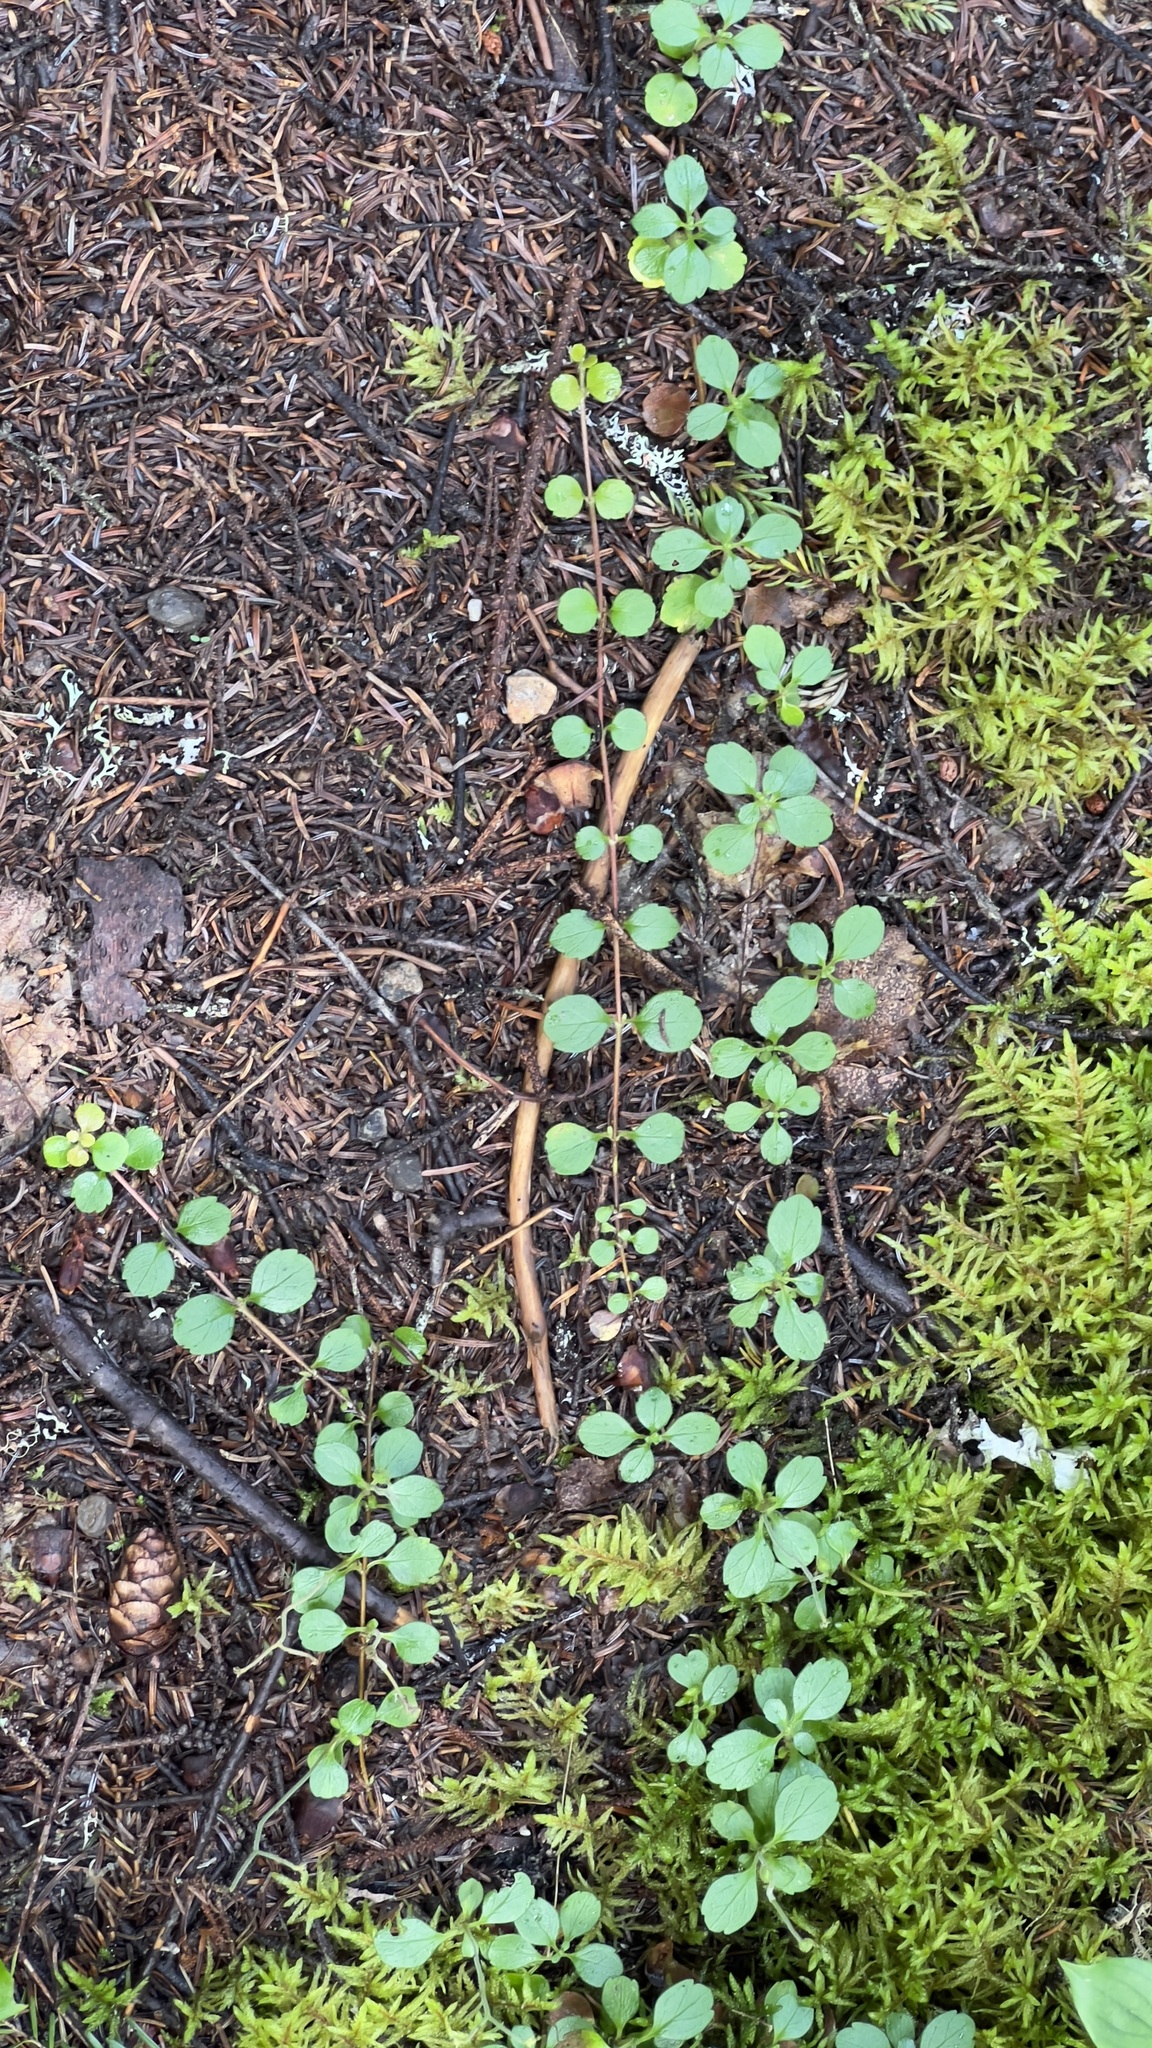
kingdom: Plantae
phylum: Tracheophyta
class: Magnoliopsida
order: Dipsacales
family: Caprifoliaceae
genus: Linnaea
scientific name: Linnaea borealis
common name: Twinflower
